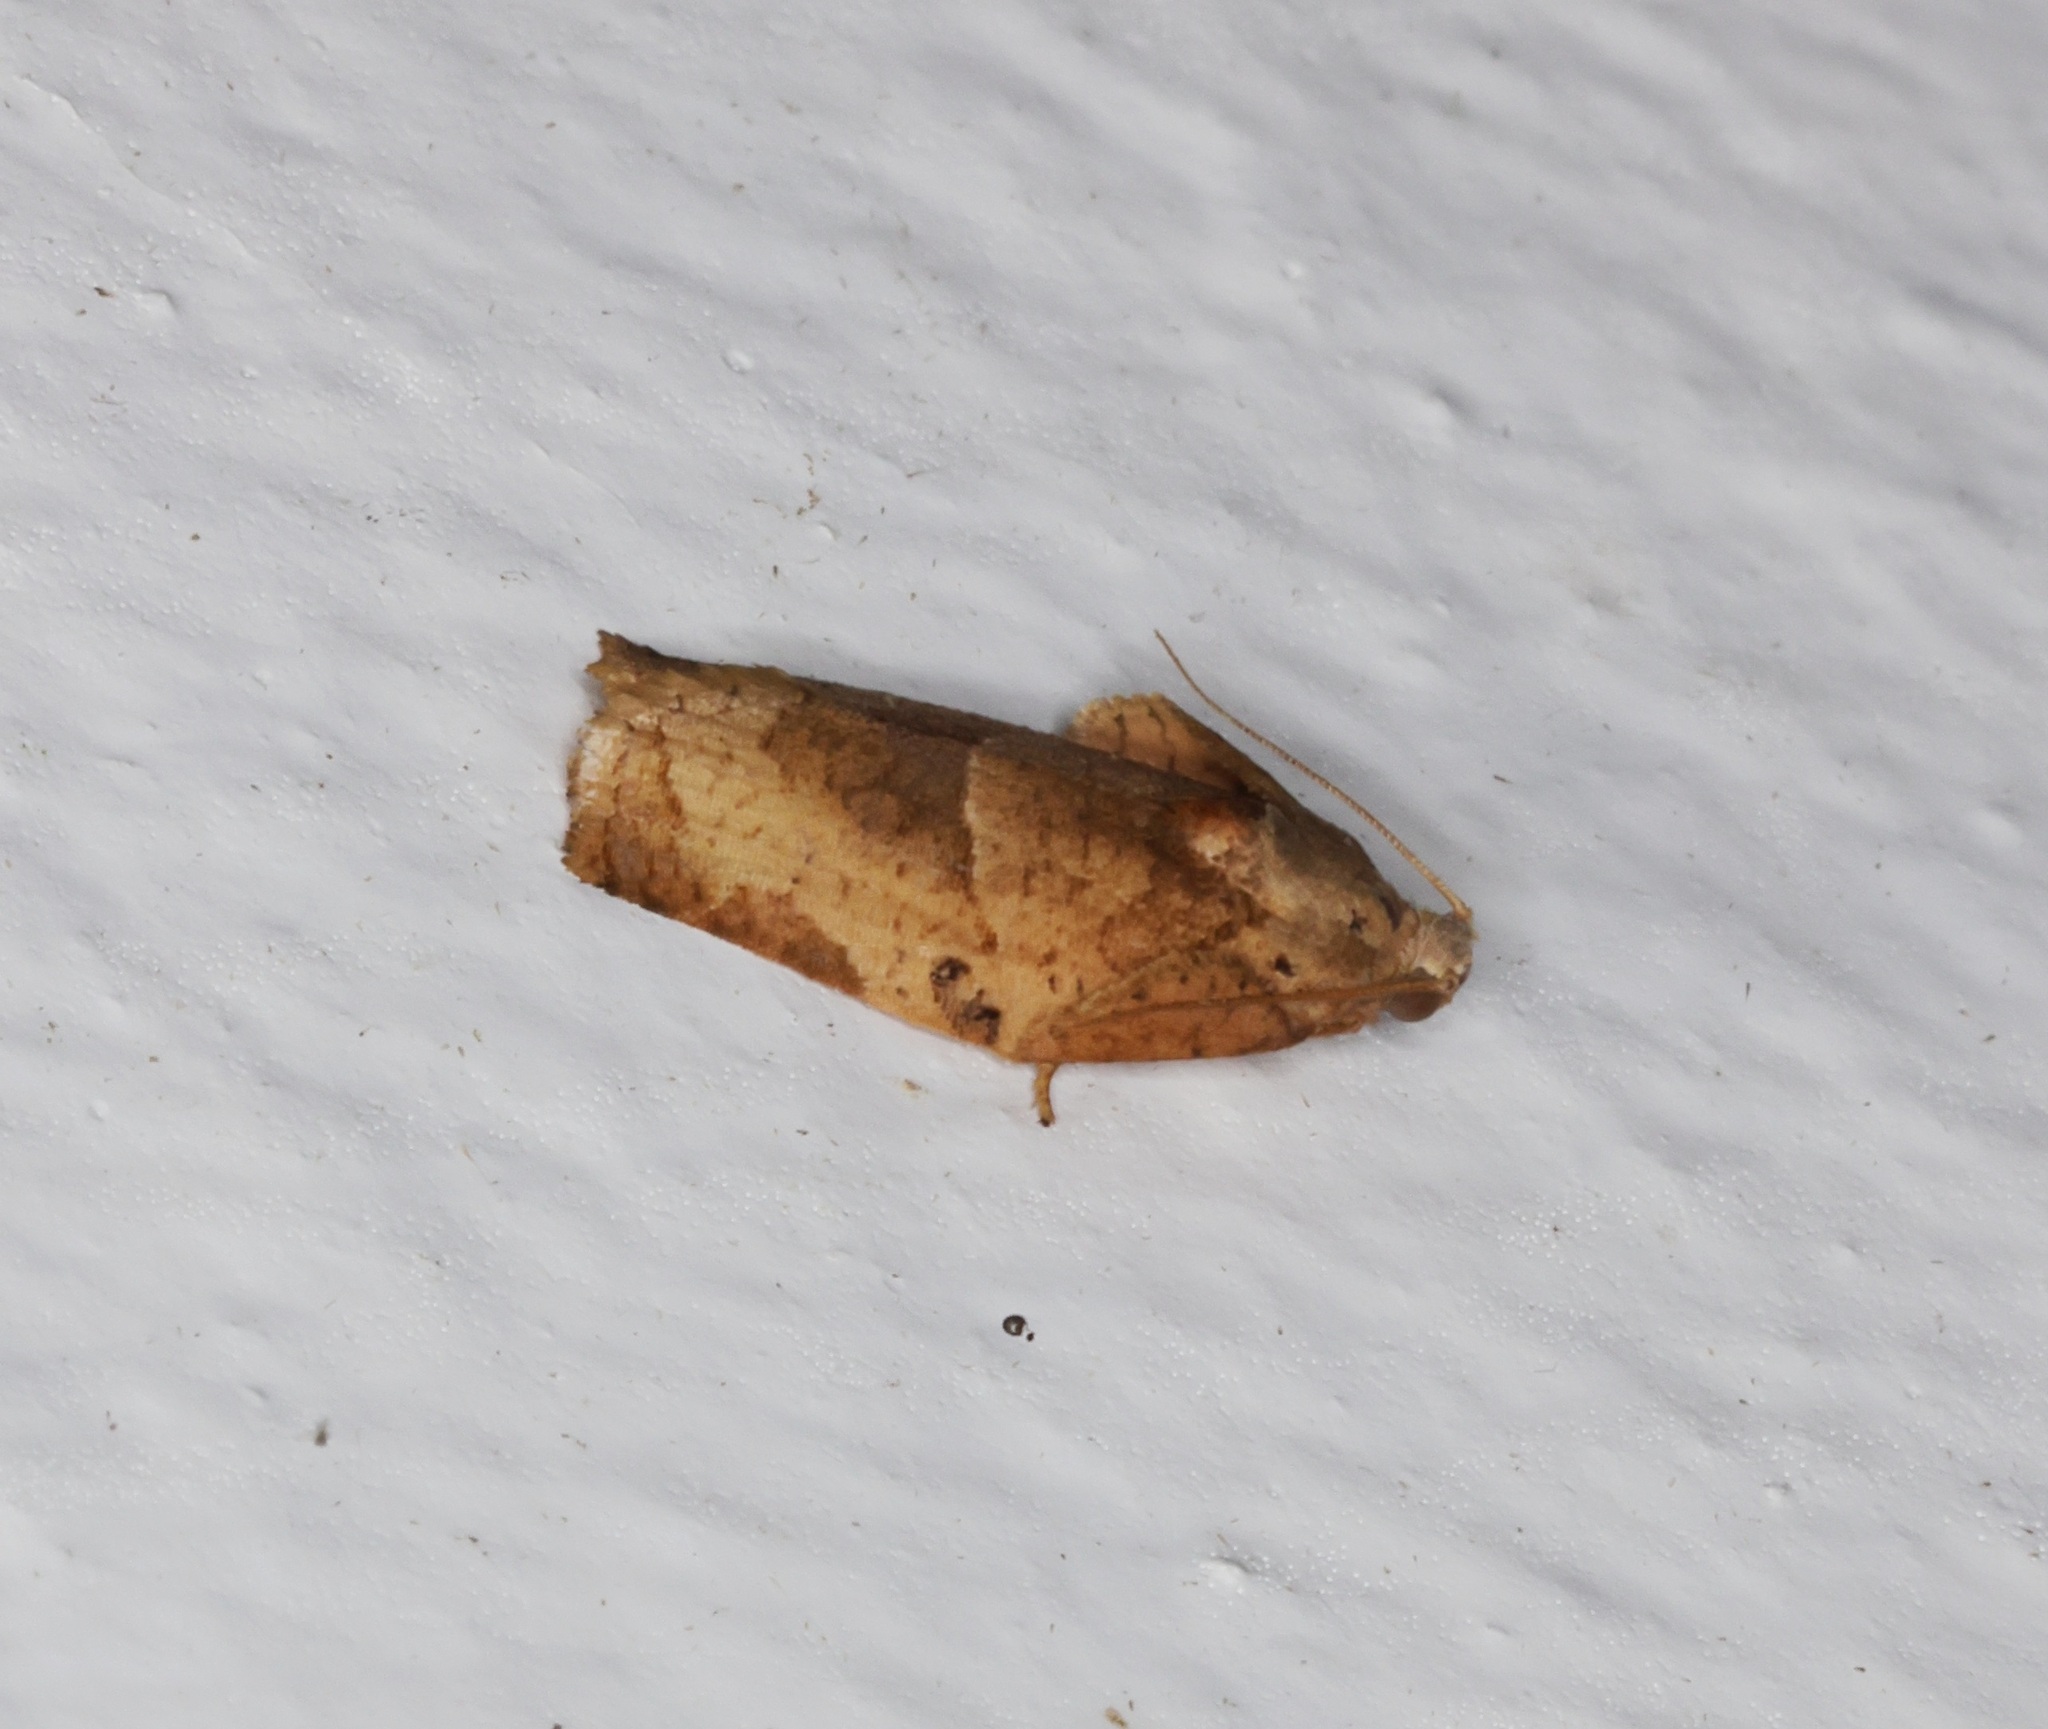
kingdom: Animalia
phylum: Arthropoda
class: Insecta
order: Lepidoptera
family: Tortricidae
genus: Homona
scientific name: Homona magnanima
